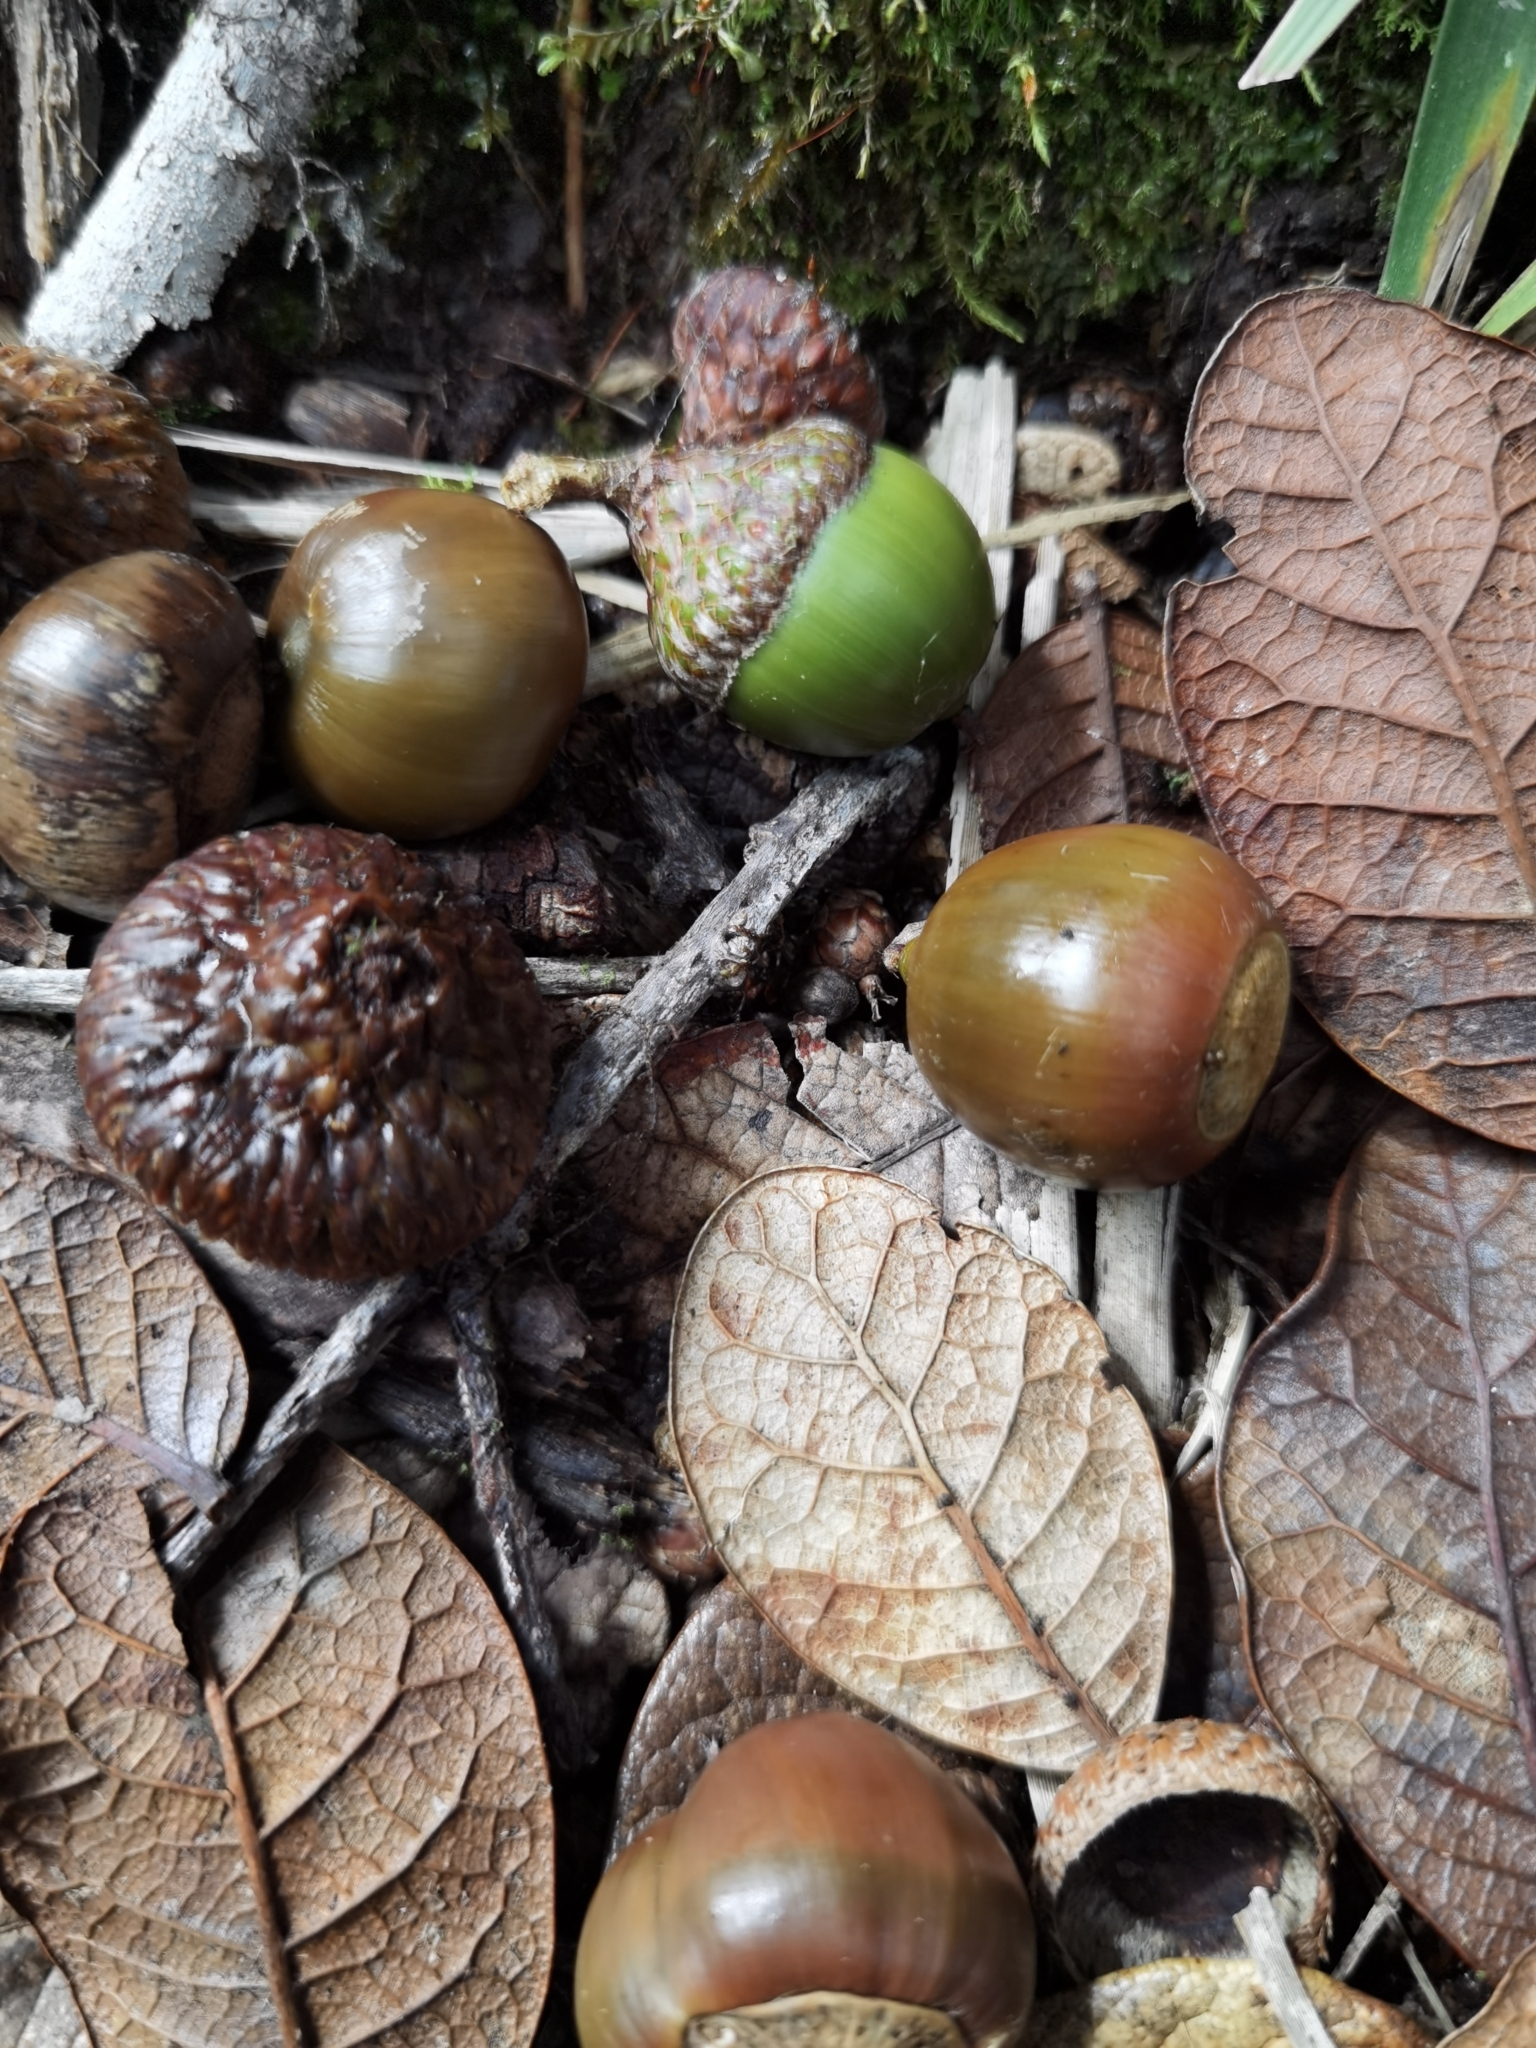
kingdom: Plantae
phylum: Tracheophyta
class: Magnoliopsida
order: Fagales
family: Fagaceae
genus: Quercus
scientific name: Quercus costaricensis
